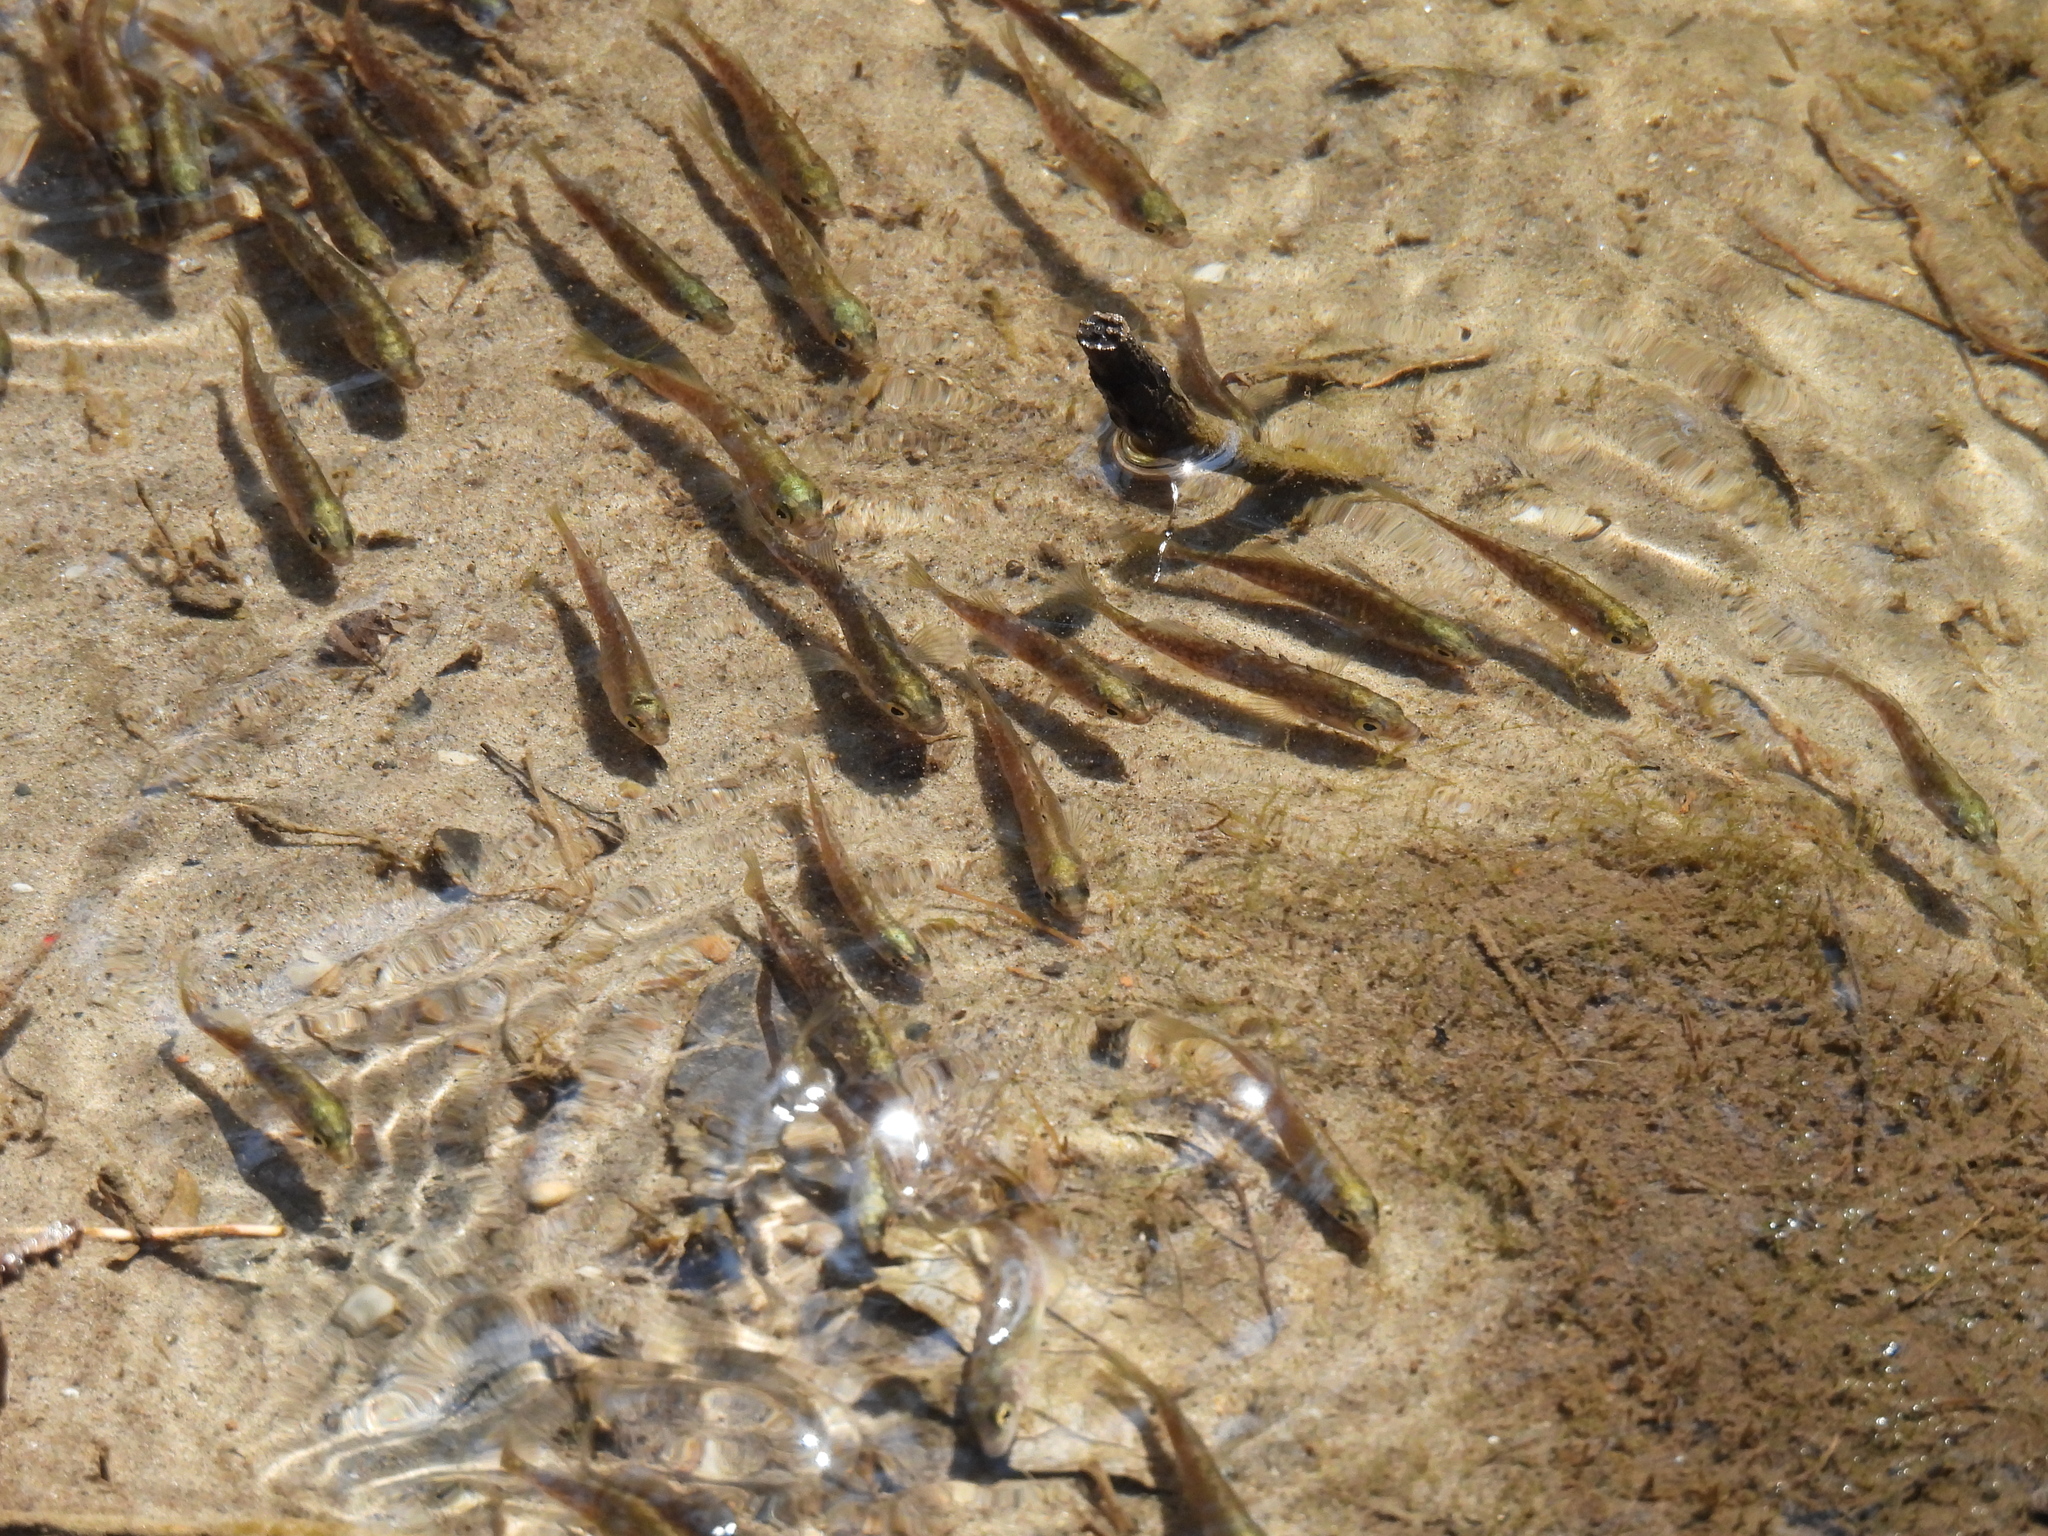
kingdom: Animalia
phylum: Chordata
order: Gasterosteiformes
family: Gasterosteidae
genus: Culaea
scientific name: Culaea inconstans
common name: Brook stickleback
